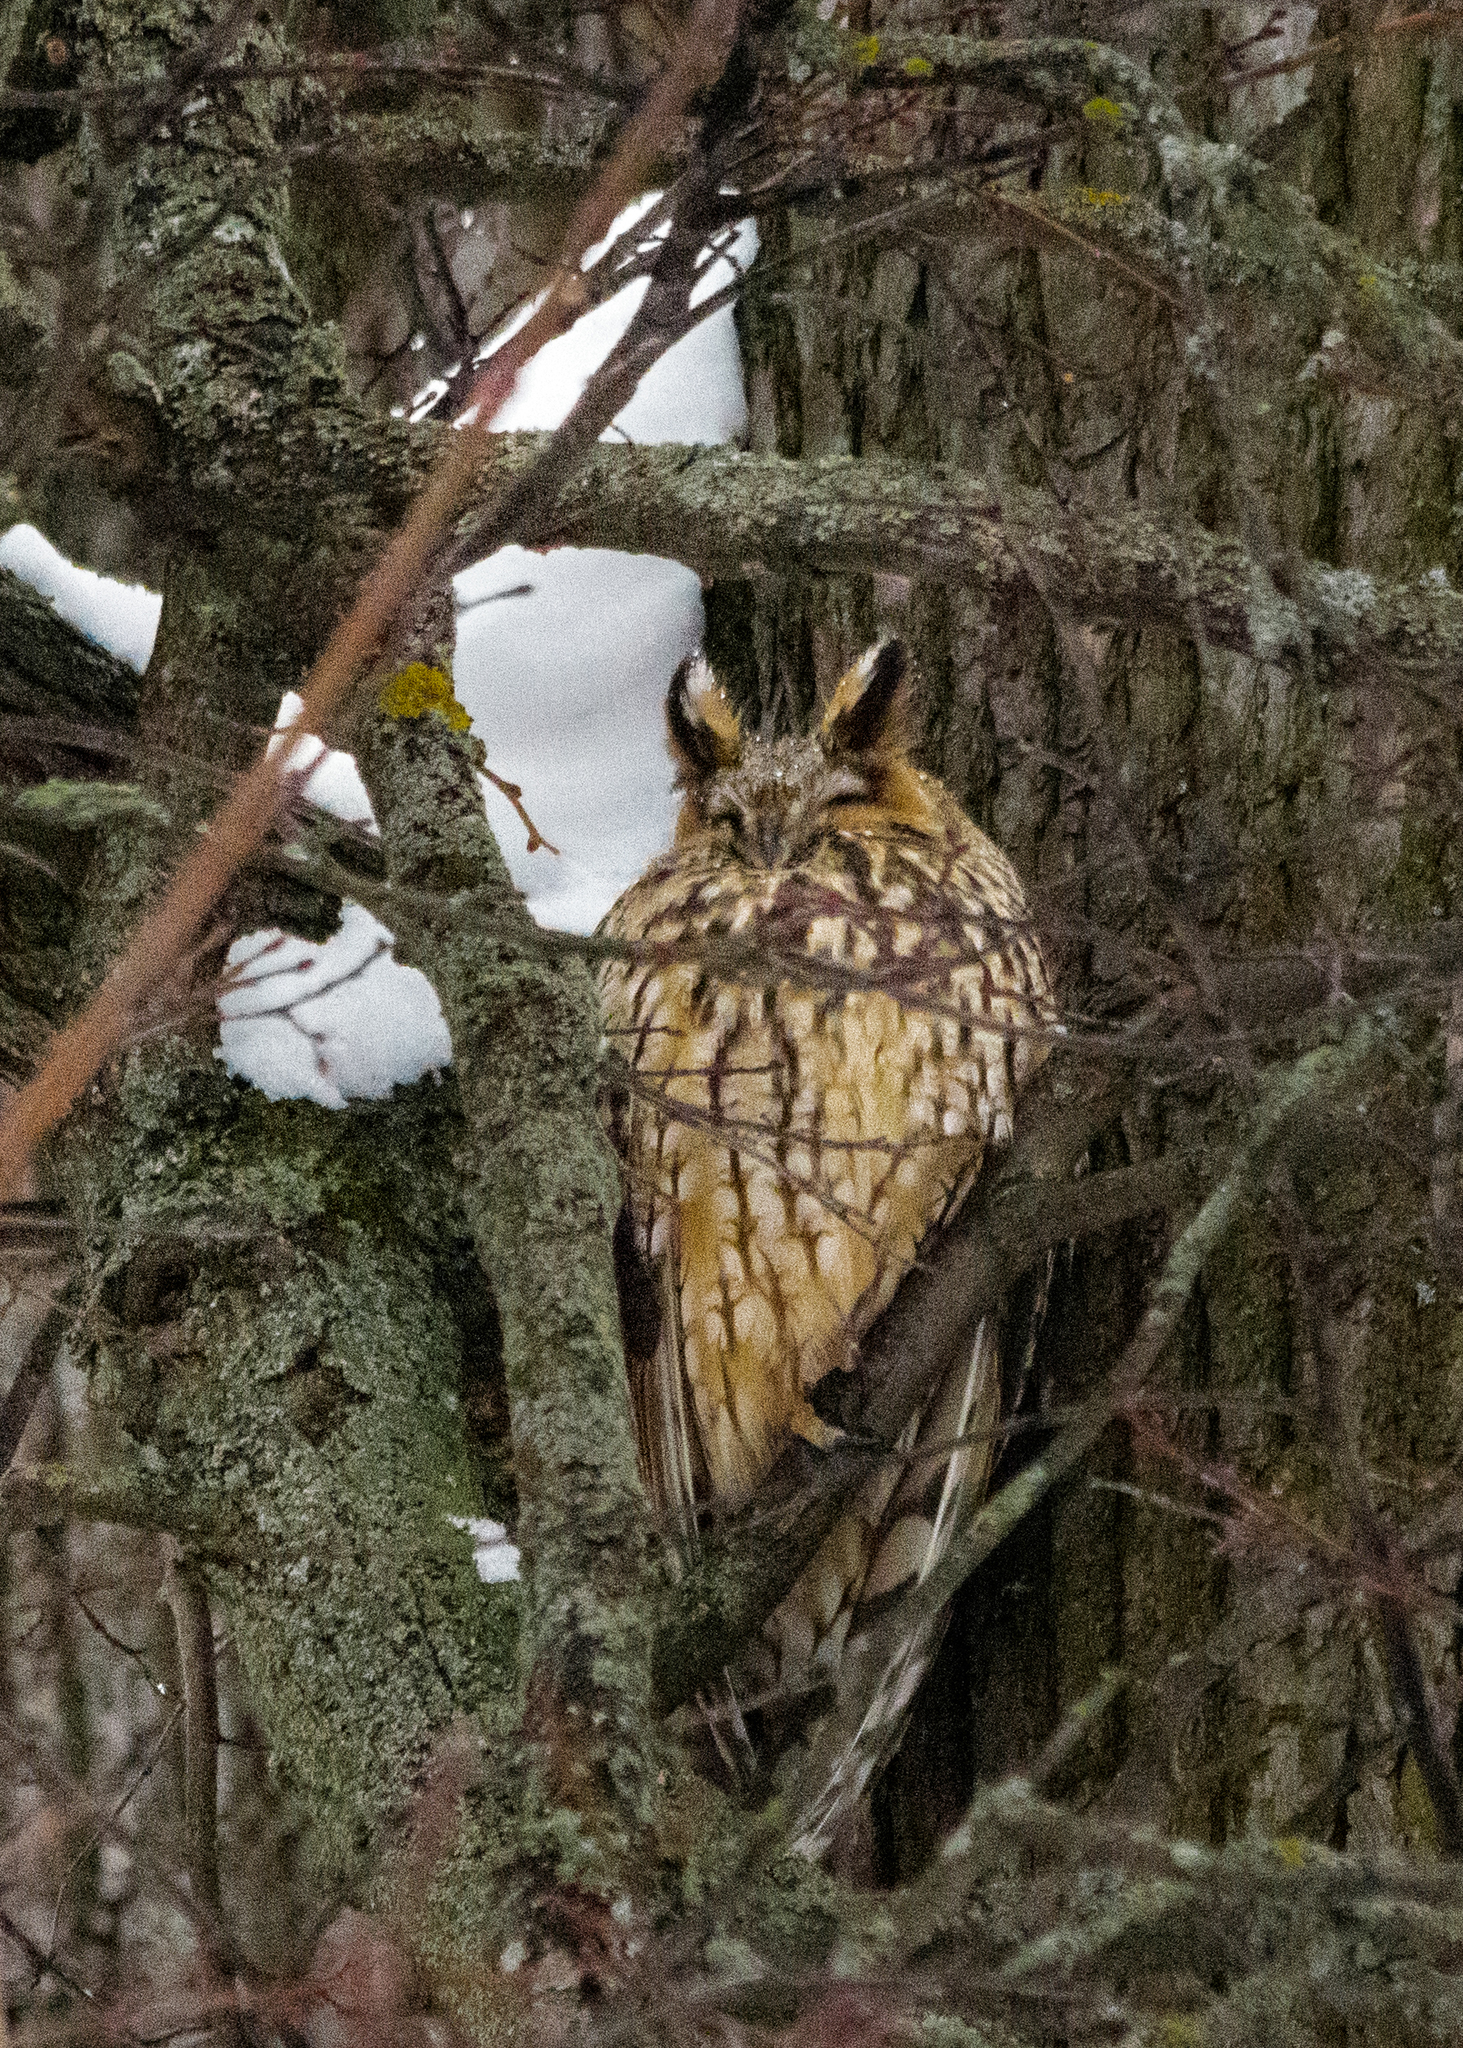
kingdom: Animalia
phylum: Chordata
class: Aves
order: Strigiformes
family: Strigidae
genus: Asio
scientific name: Asio otus
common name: Long-eared owl
